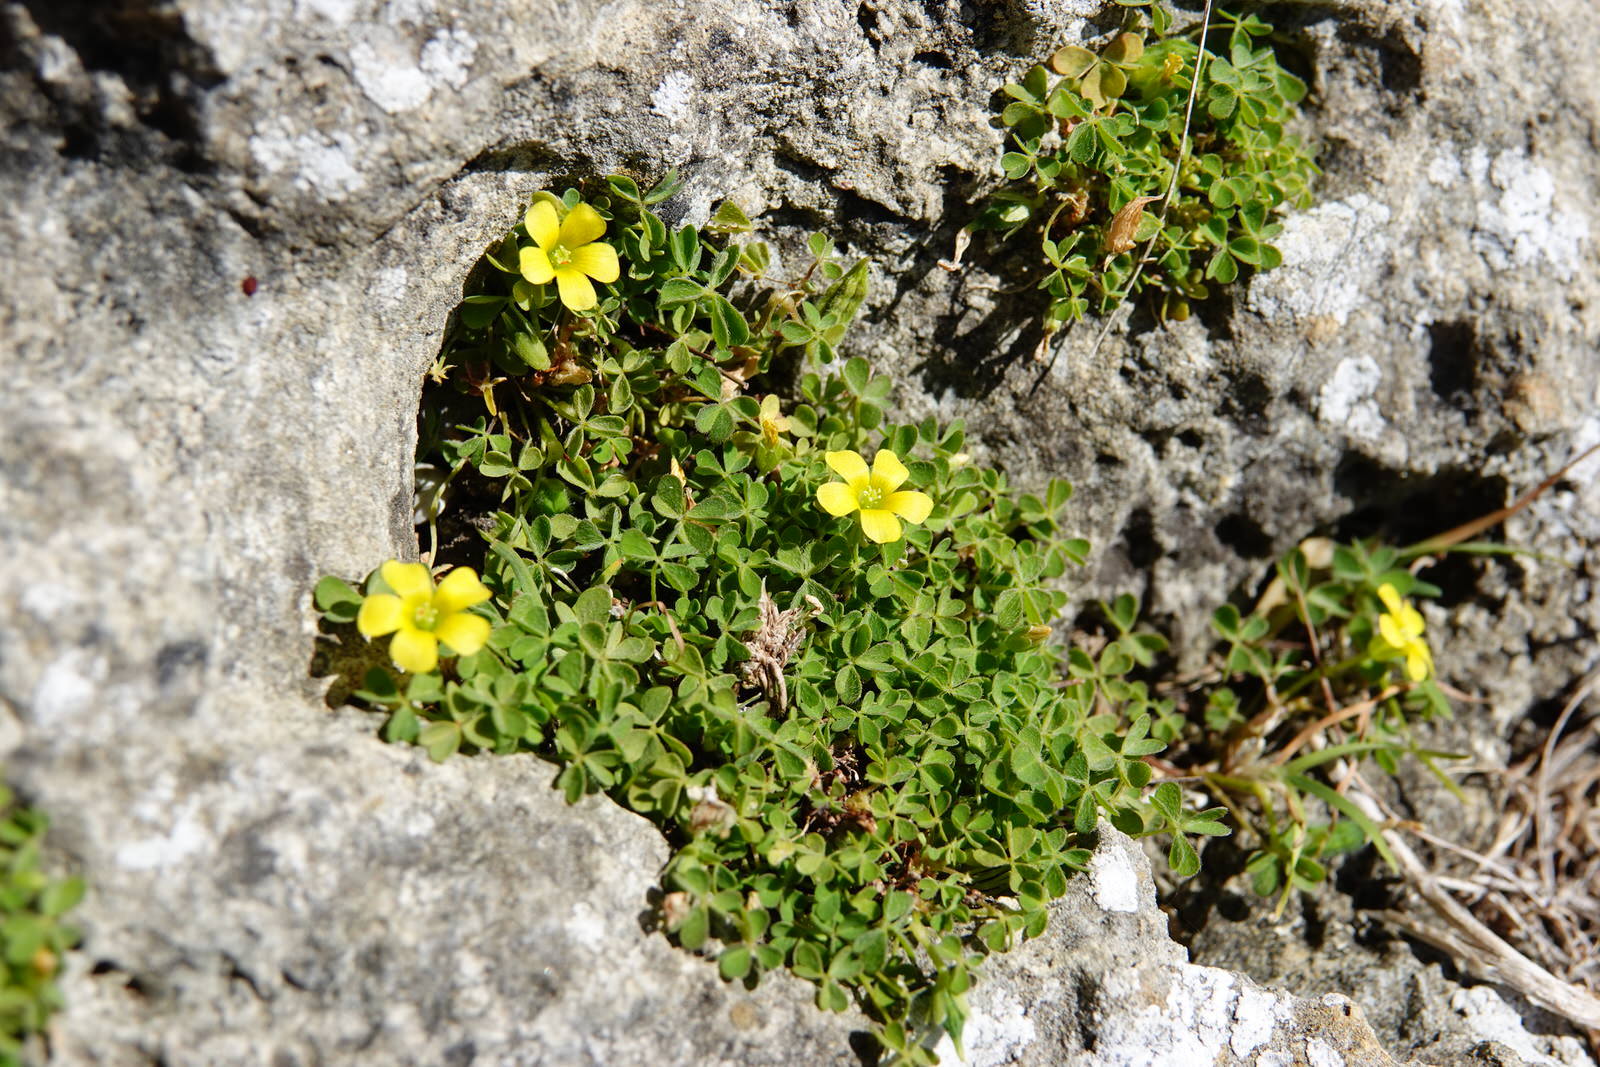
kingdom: Plantae
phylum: Tracheophyta
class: Magnoliopsida
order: Oxalidales
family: Oxalidaceae
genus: Oxalis
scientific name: Oxalis exilis
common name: Least yellow-sorrel
